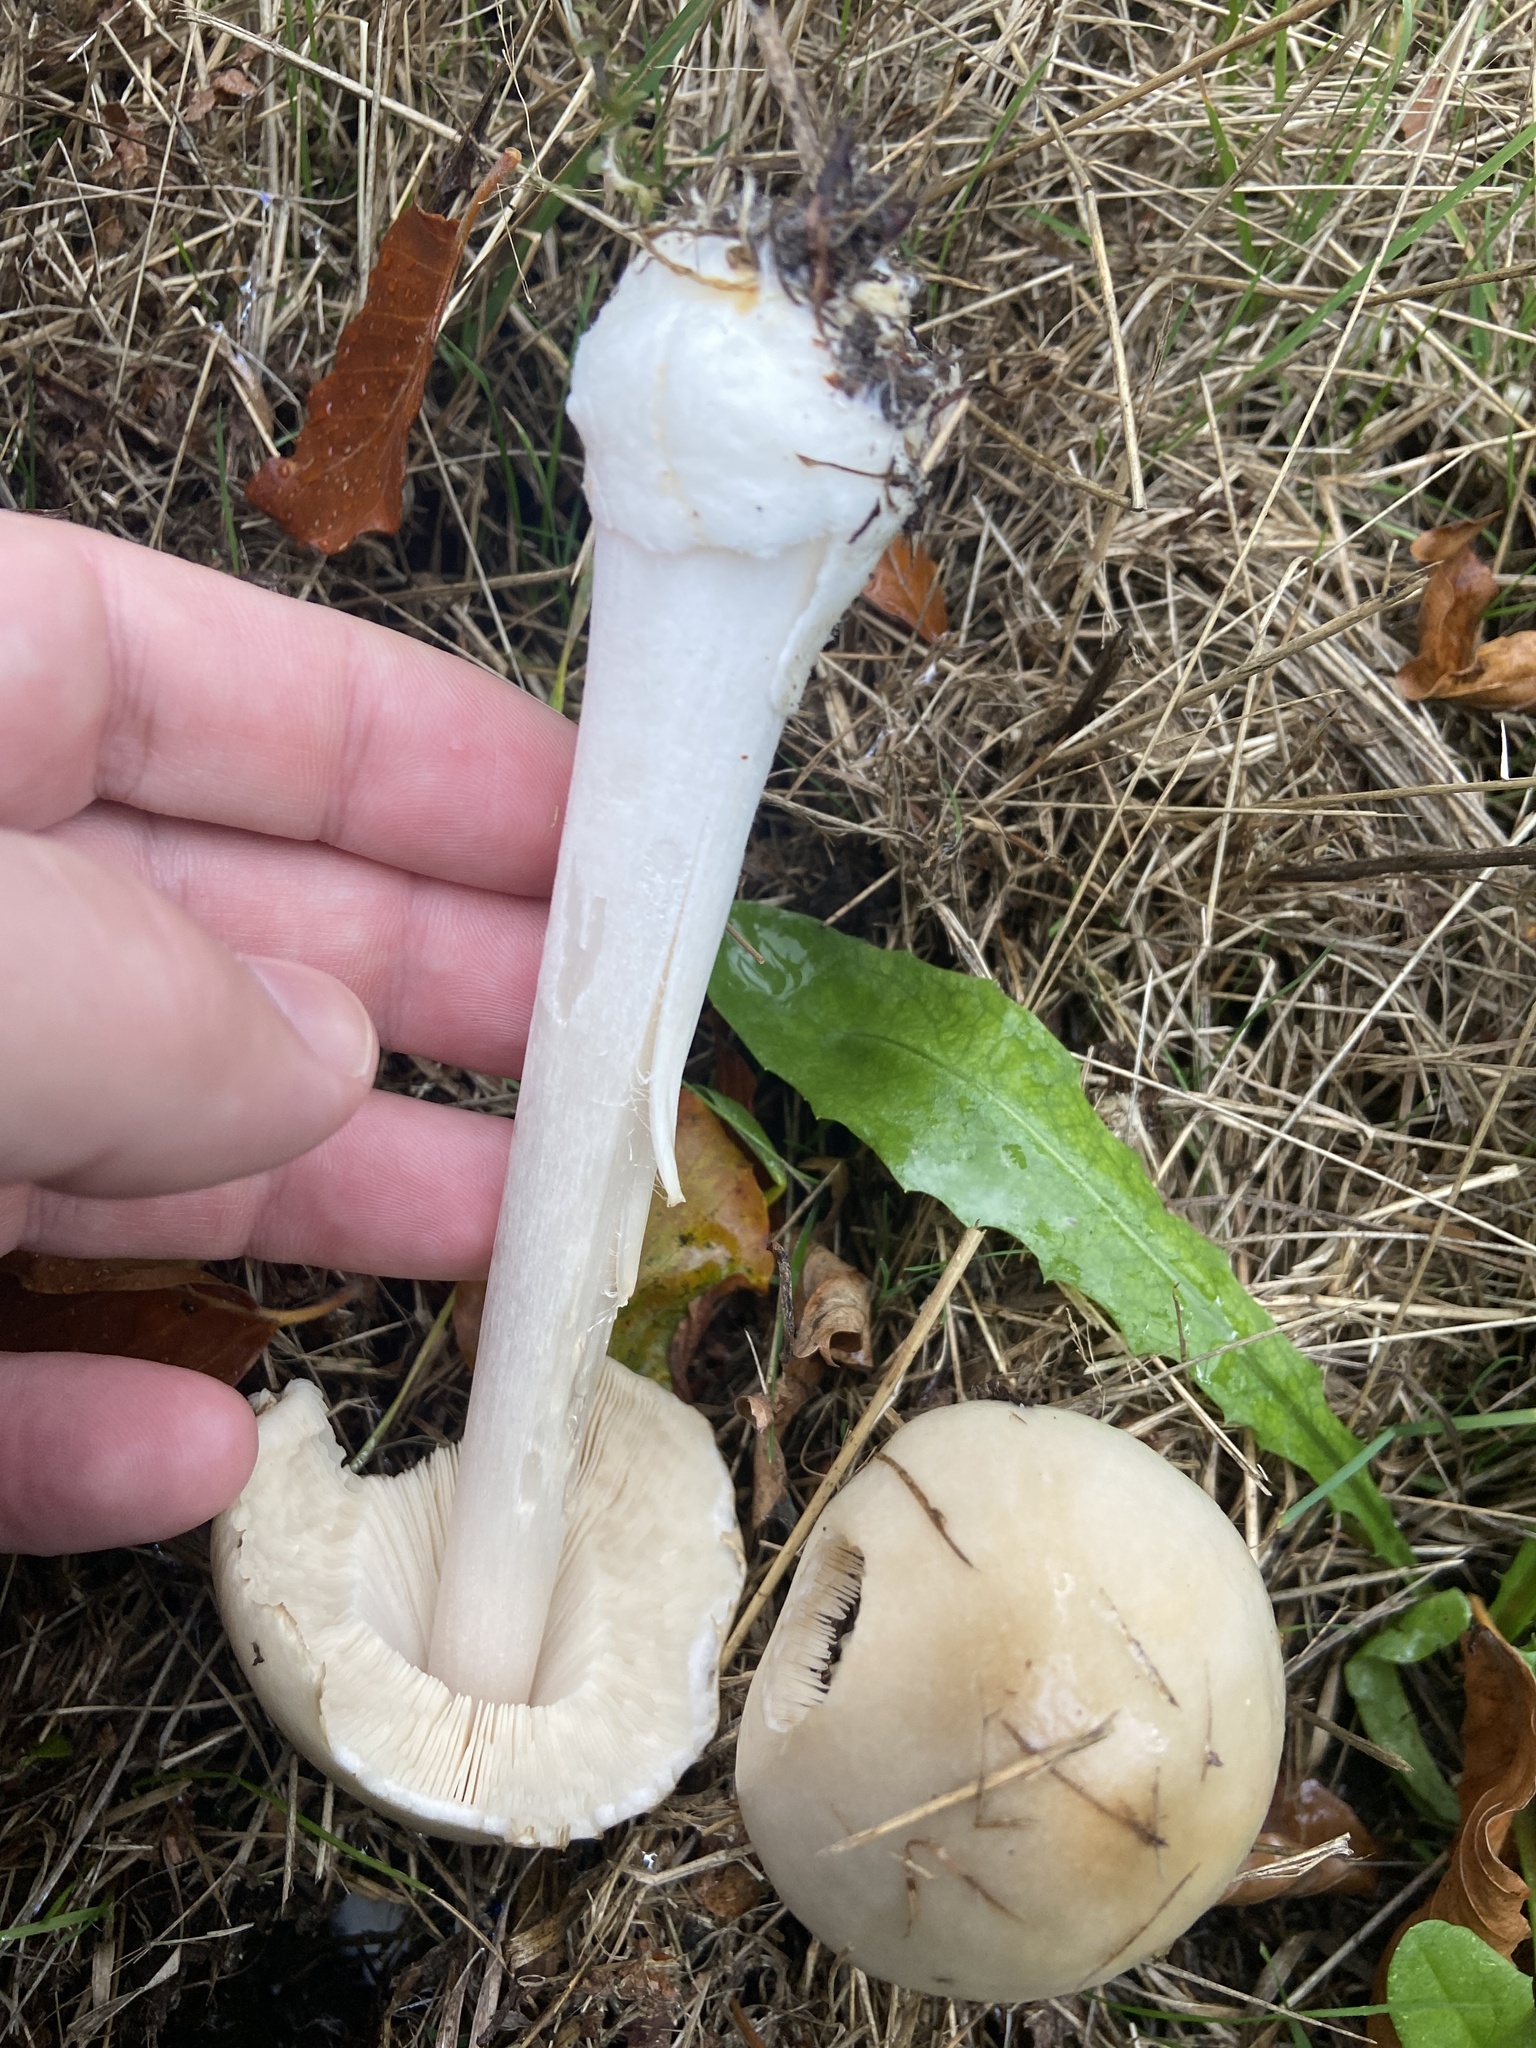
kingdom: Fungi
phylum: Basidiomycota
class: Agaricomycetes
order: Agaricales
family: Pluteaceae
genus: Volvopluteus
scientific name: Volvopluteus gloiocephalus
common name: Stubble rosegill
